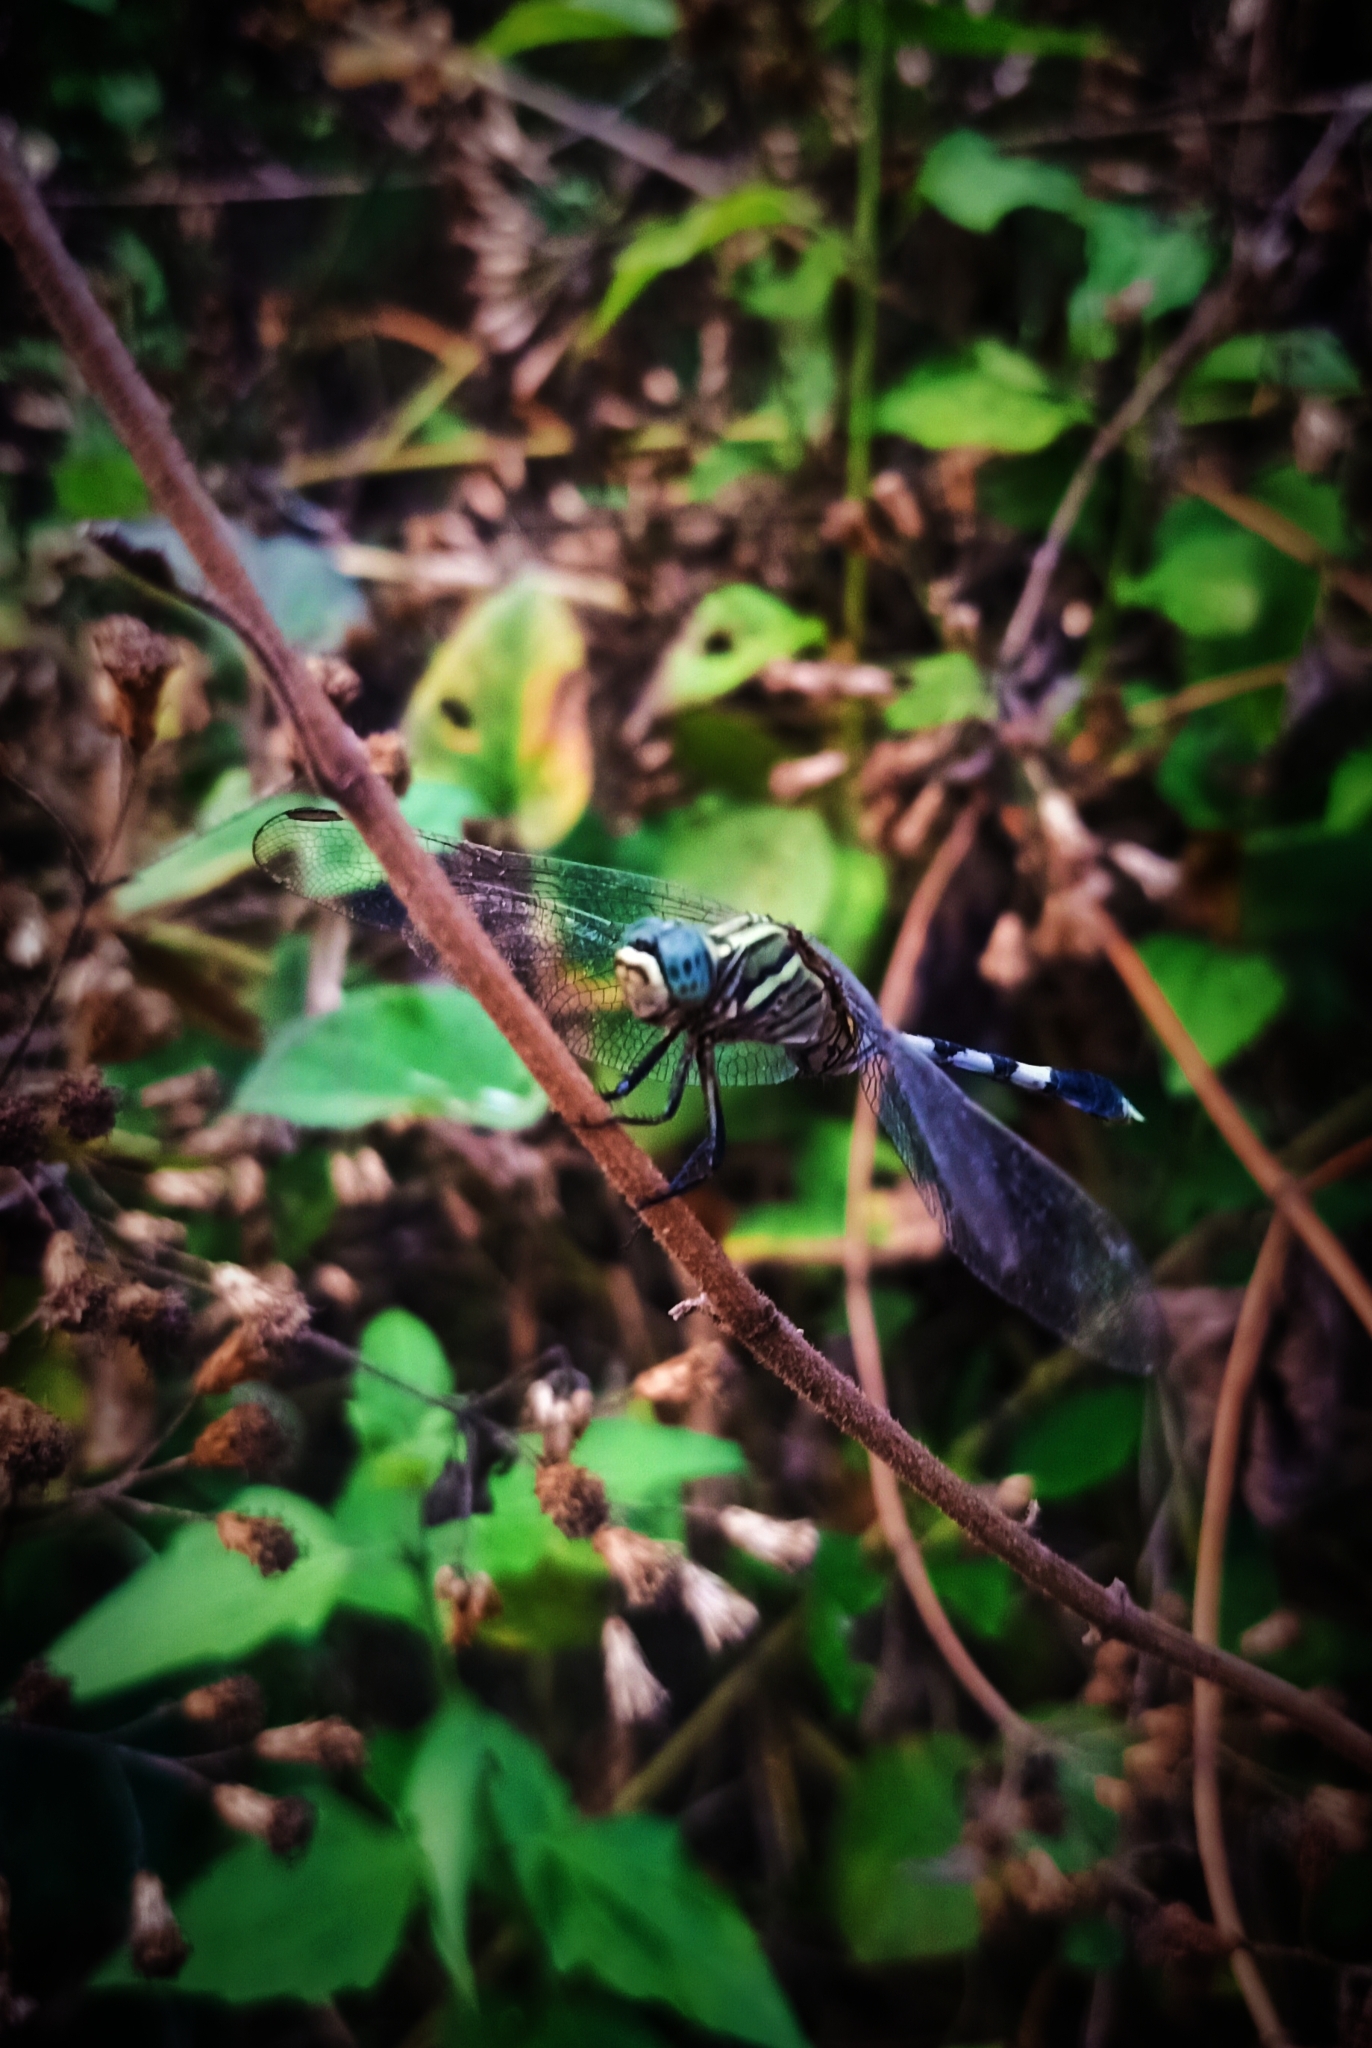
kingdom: Animalia
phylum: Arthropoda
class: Insecta
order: Odonata
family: Libellulidae
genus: Orthetrum
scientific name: Orthetrum sabina
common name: Slender skimmer
